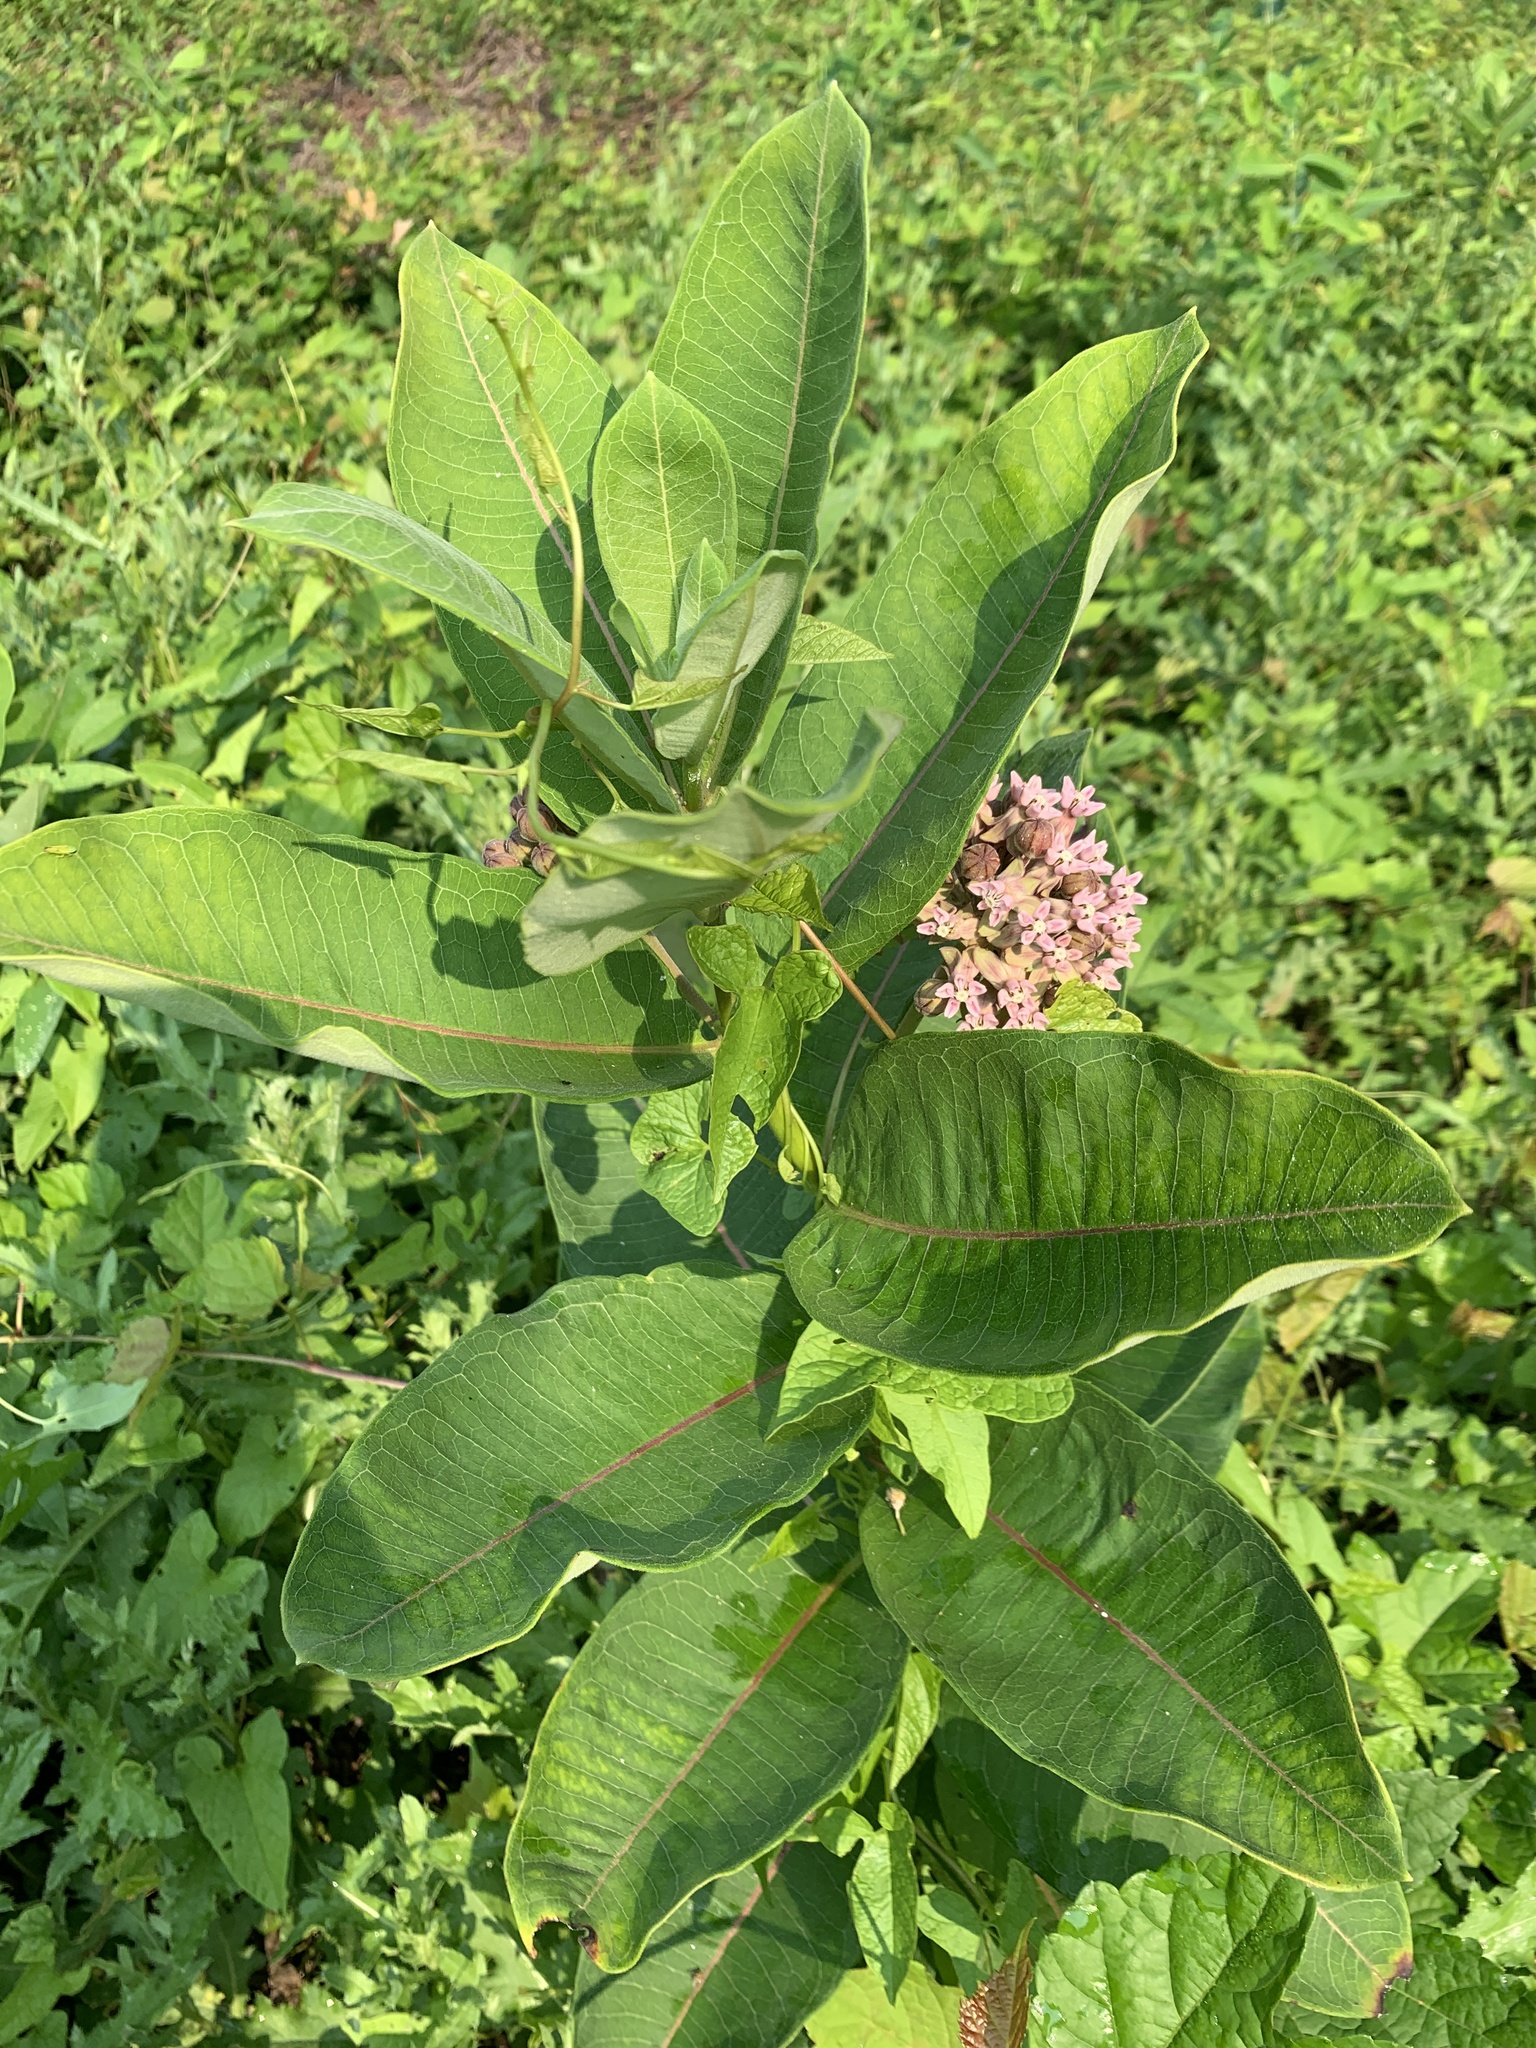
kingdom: Plantae
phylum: Tracheophyta
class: Magnoliopsida
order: Gentianales
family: Apocynaceae
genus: Asclepias
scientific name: Asclepias syriaca
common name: Common milkweed
